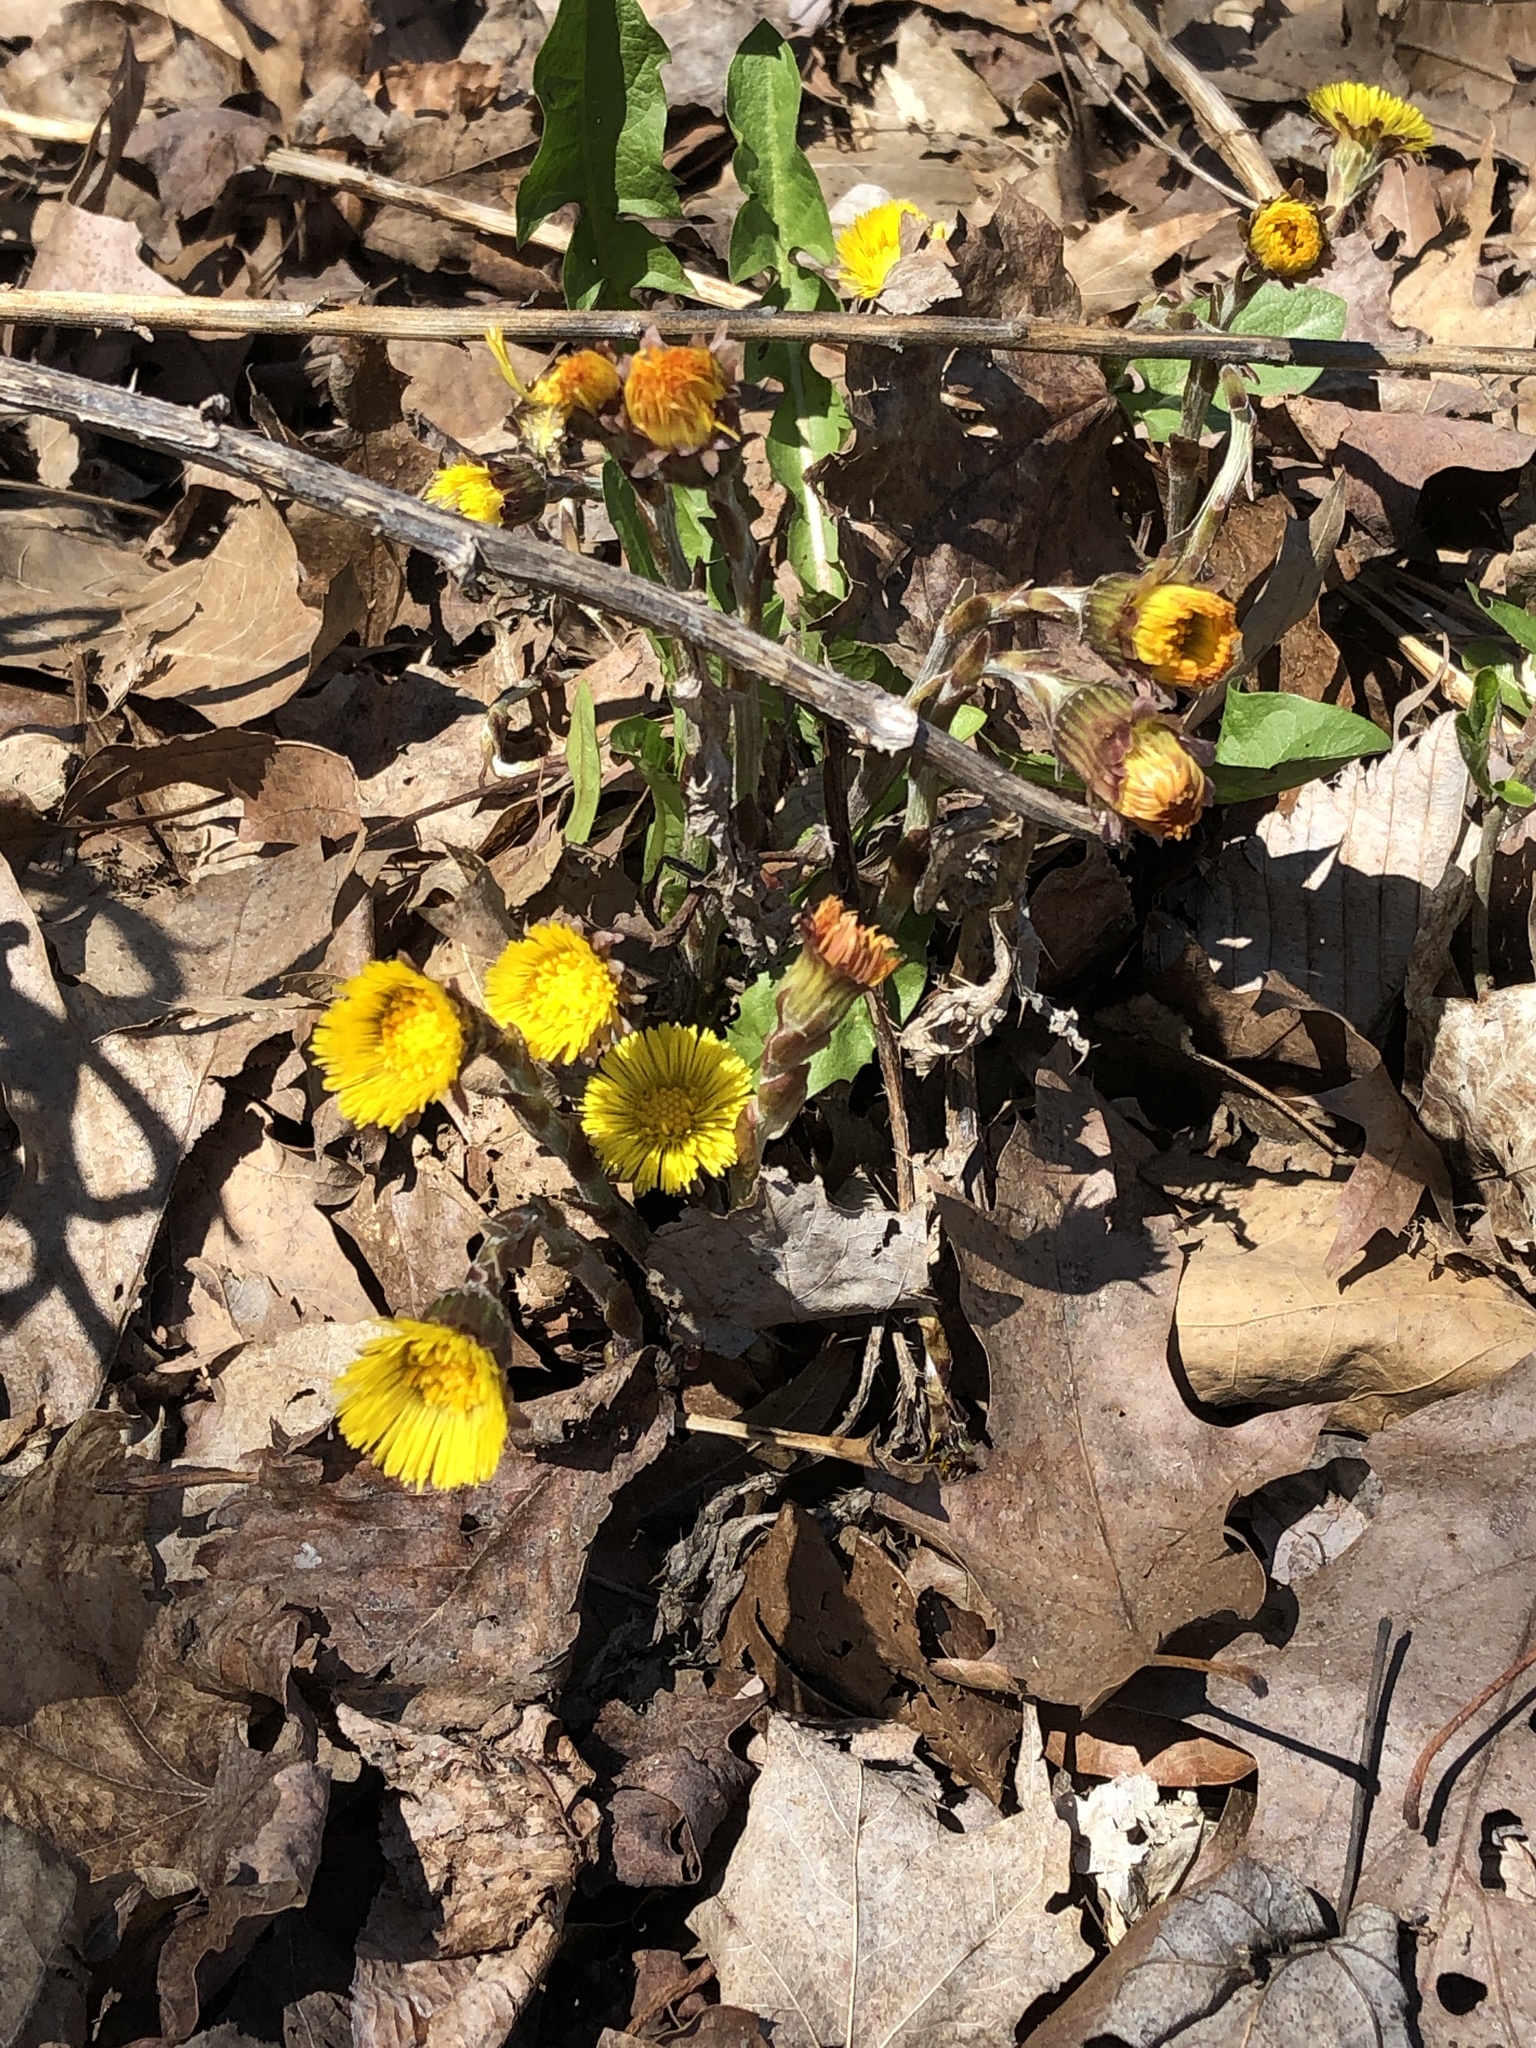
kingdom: Plantae
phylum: Tracheophyta
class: Magnoliopsida
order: Asterales
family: Asteraceae
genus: Tussilago
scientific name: Tussilago farfara
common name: Coltsfoot
